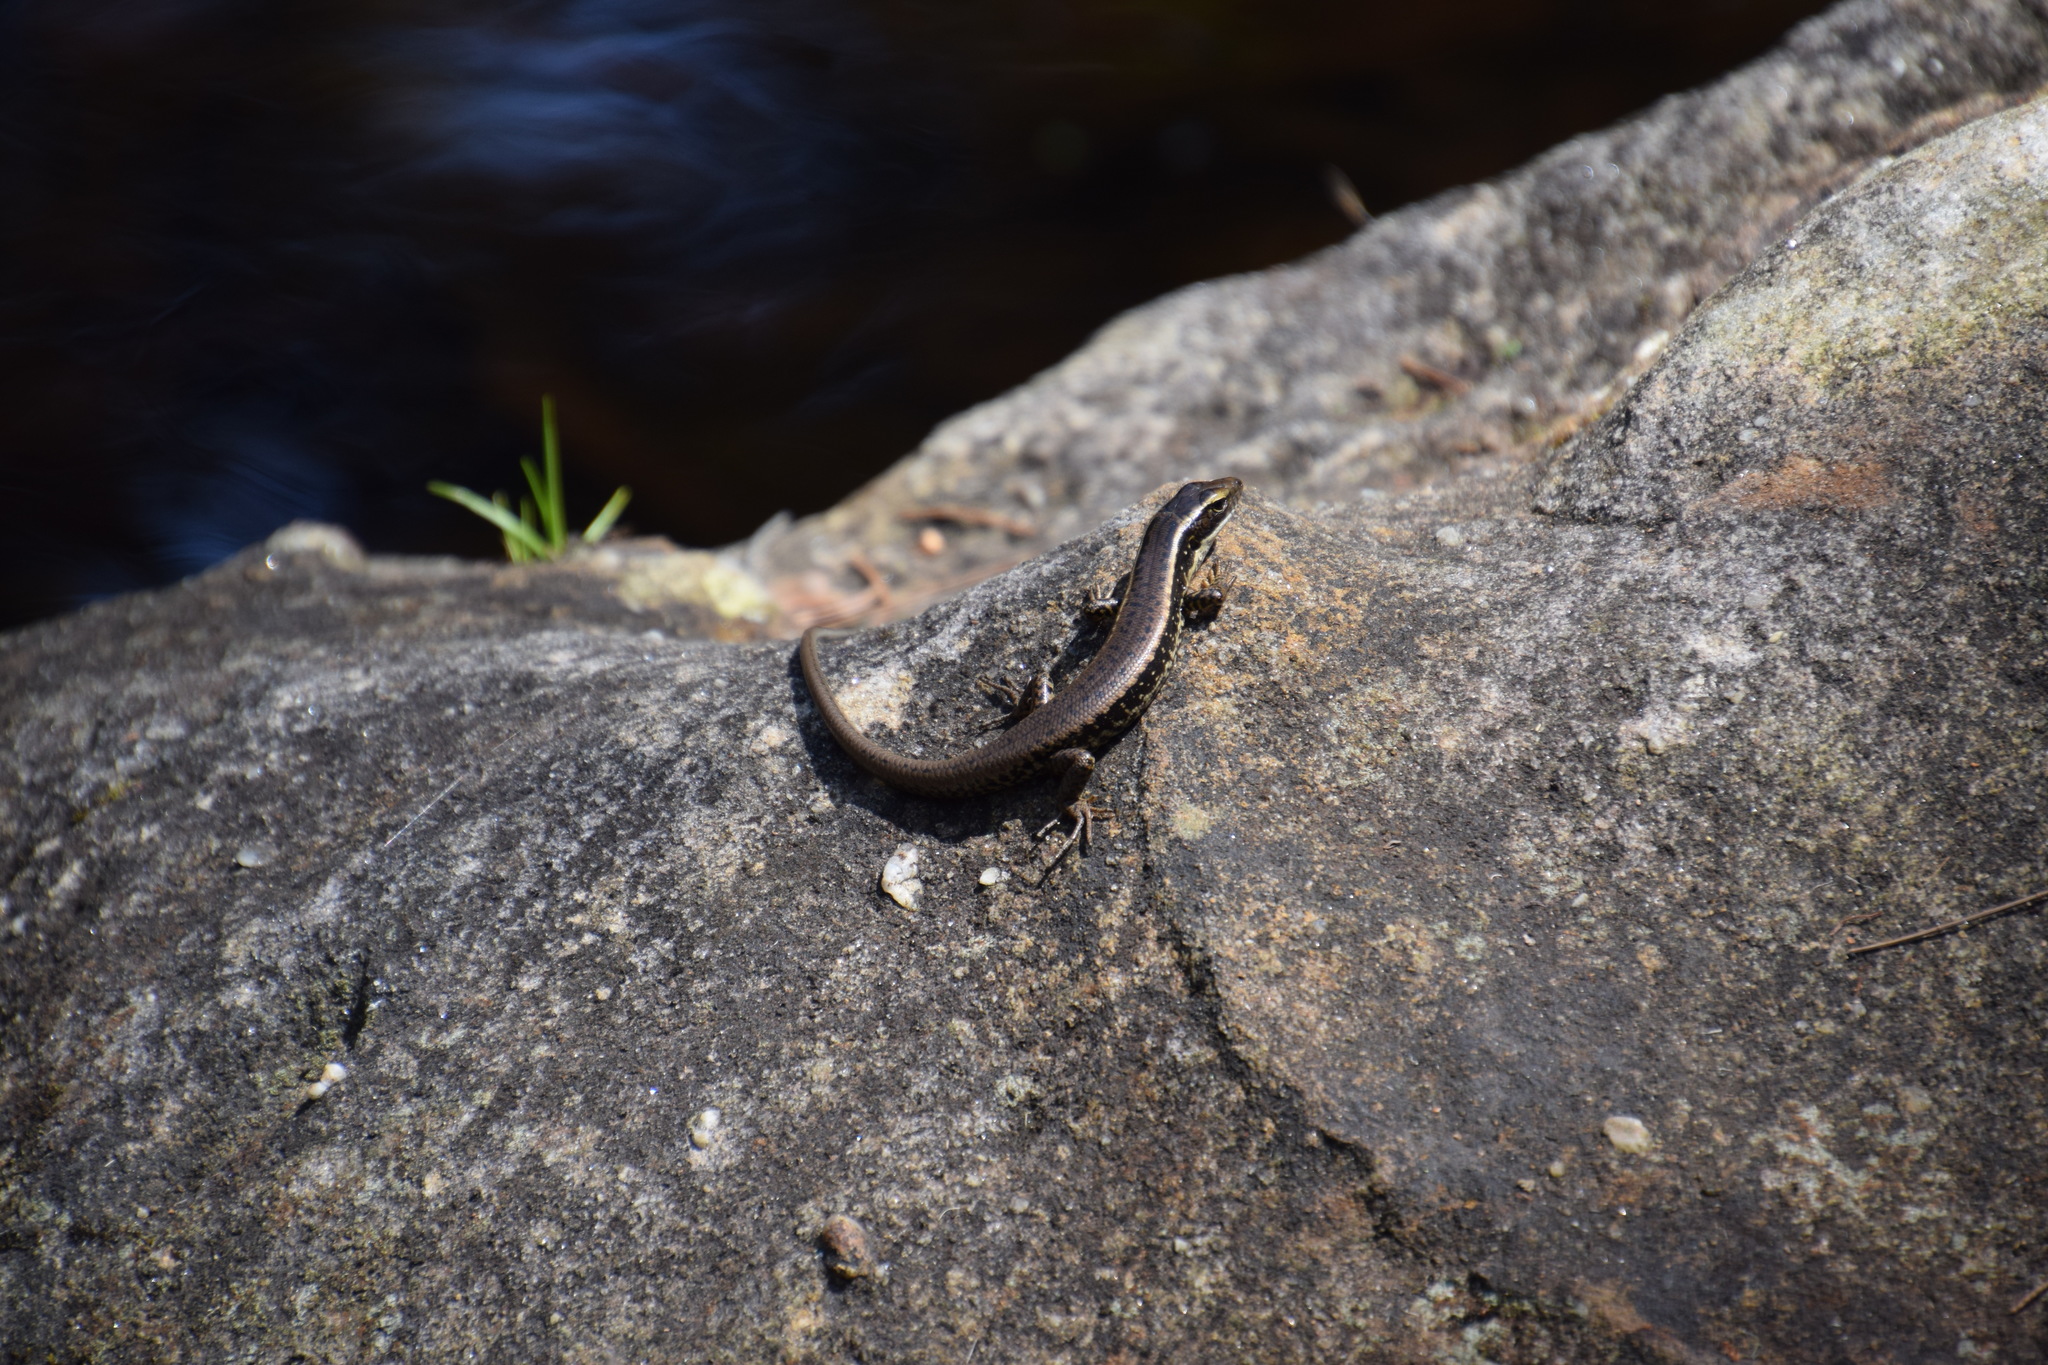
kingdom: Animalia
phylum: Chordata
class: Squamata
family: Scincidae
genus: Eulamprus
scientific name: Eulamprus quoyii
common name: Eastern water skink
